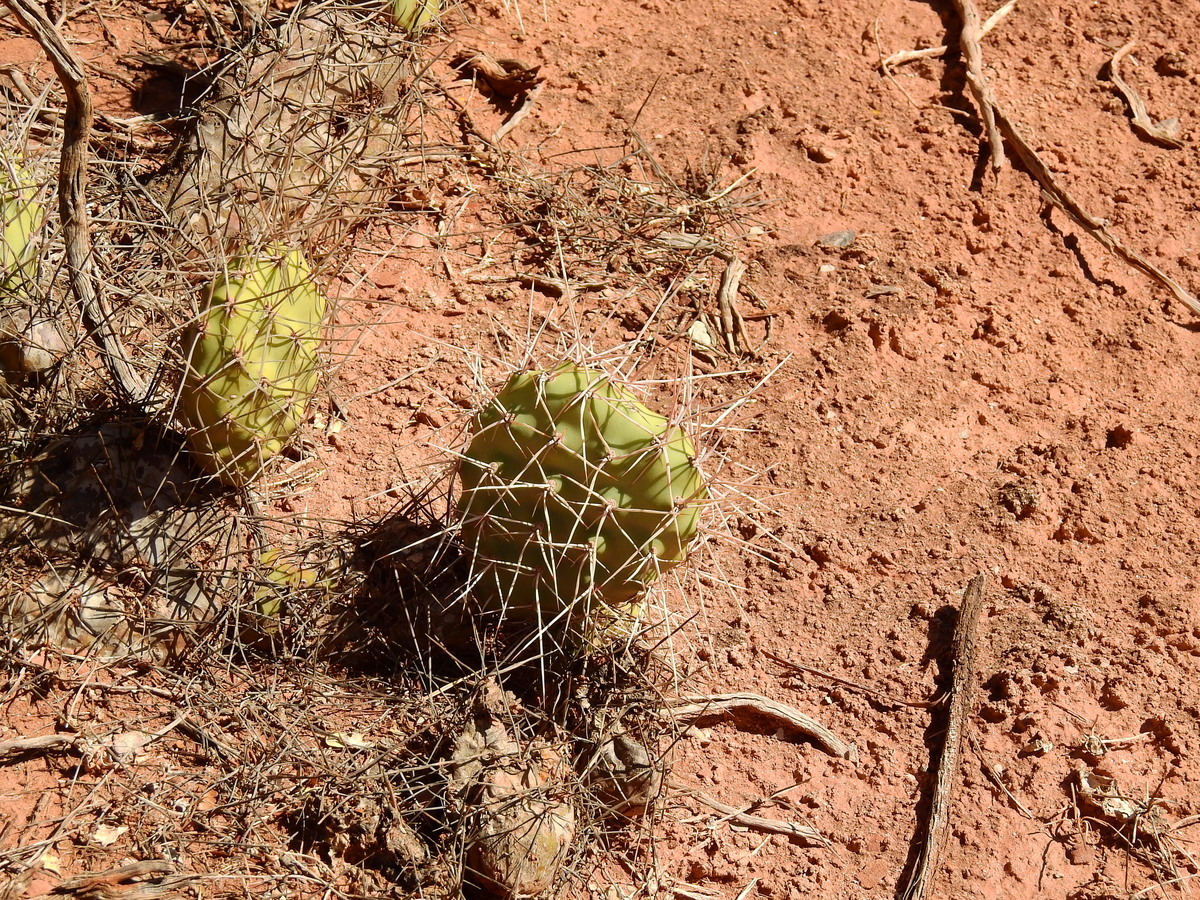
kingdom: Plantae
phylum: Tracheophyta
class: Magnoliopsida
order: Caryophyllales
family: Cactaceae
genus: Opuntia
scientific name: Opuntia sulphurea
